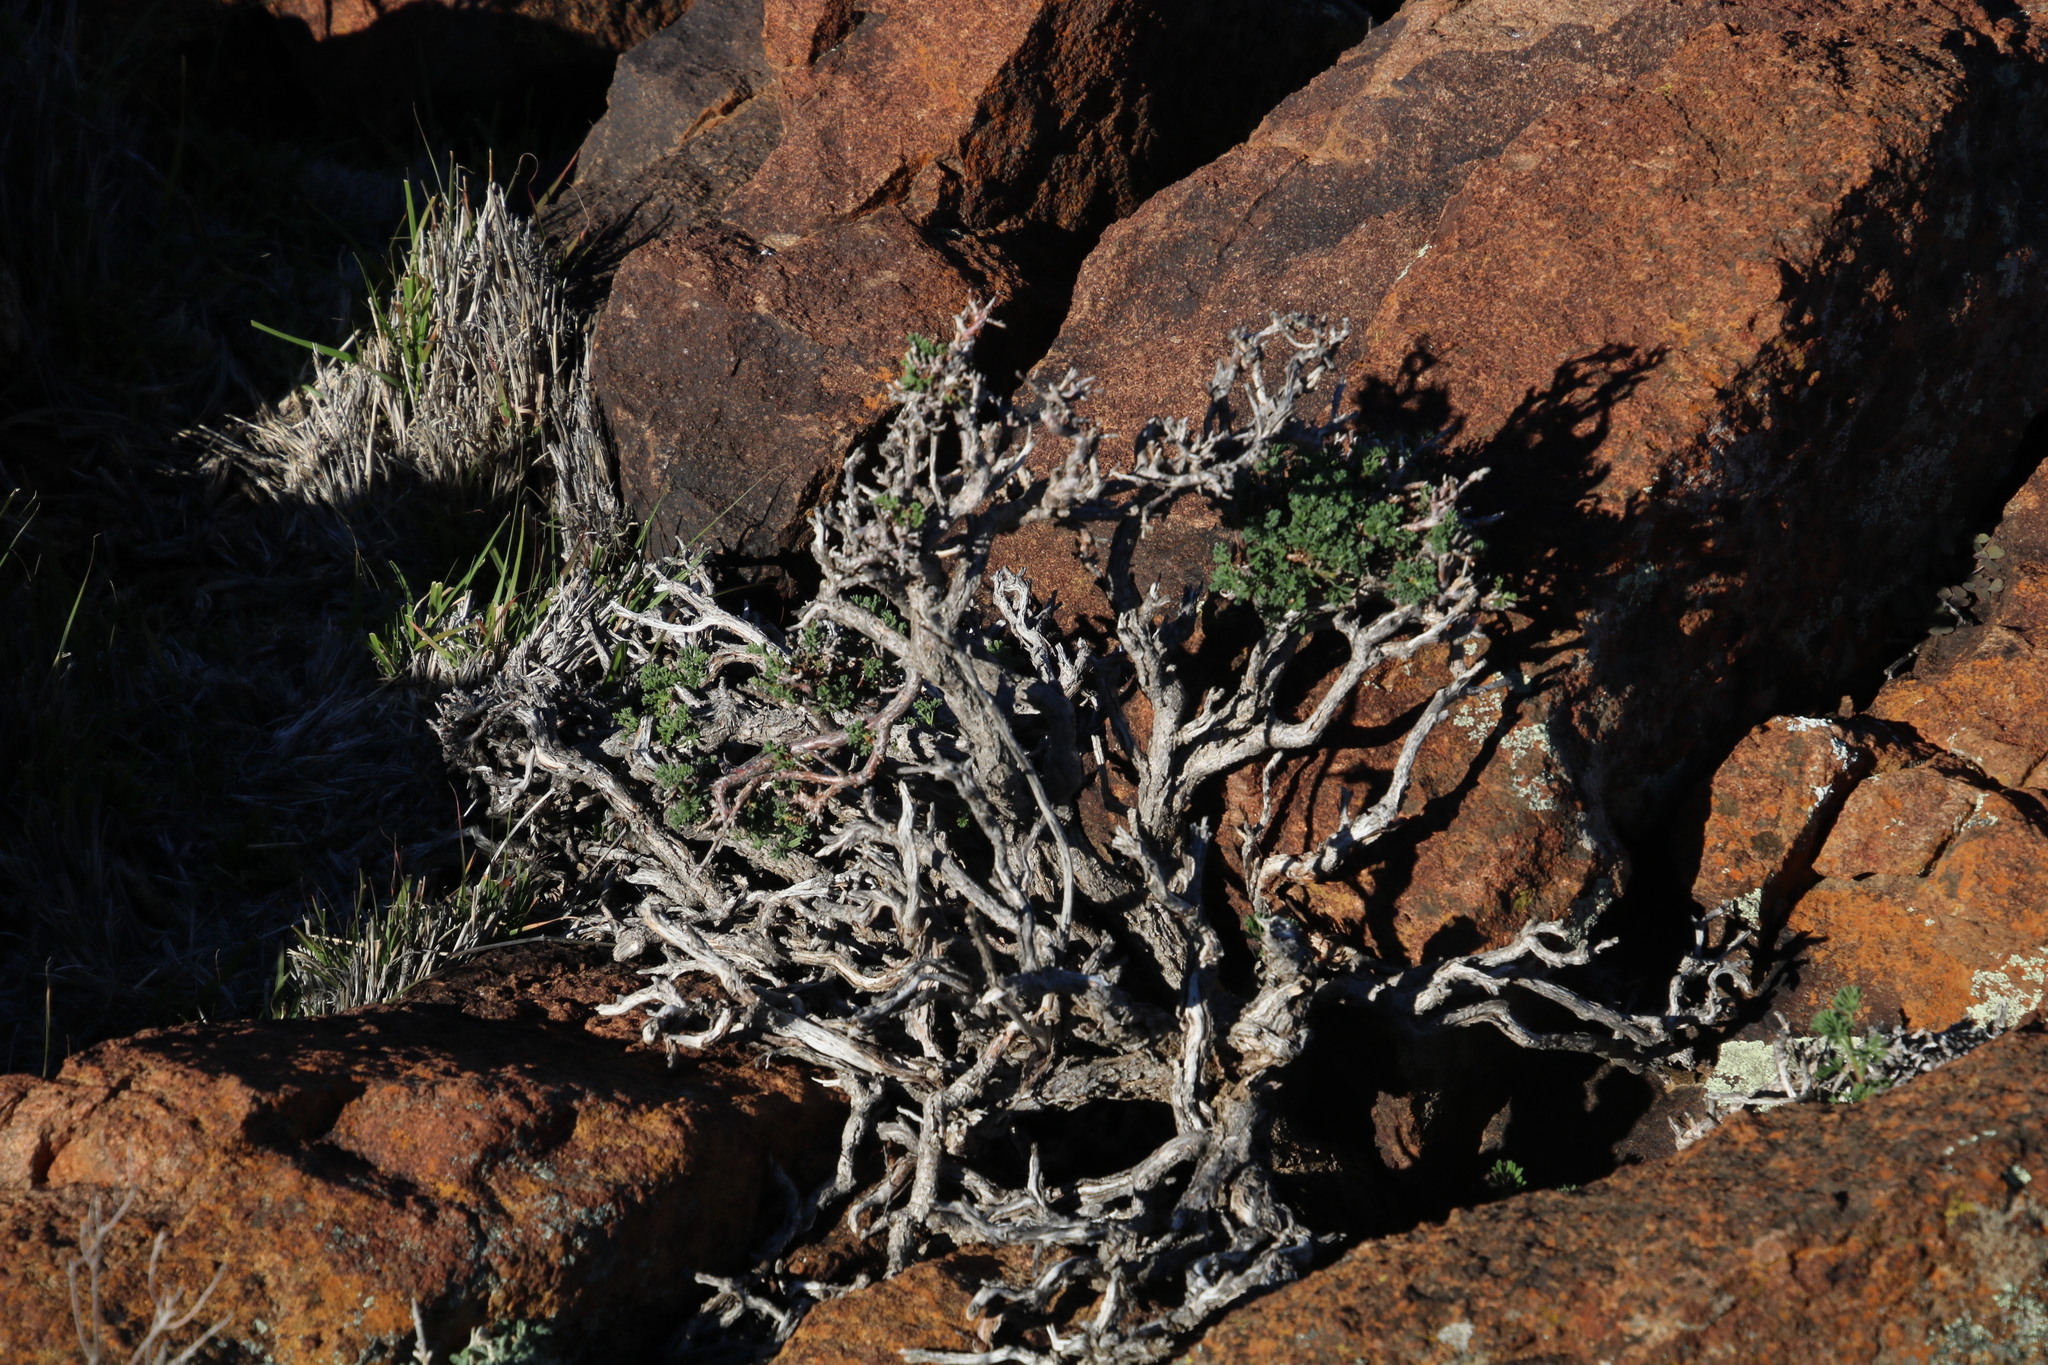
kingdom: Plantae
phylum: Tracheophyta
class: Magnoliopsida
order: Geraniales
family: Geraniaceae
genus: Pelargonium
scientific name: Pelargonium abrotanifolium
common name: Southernwood geranium
